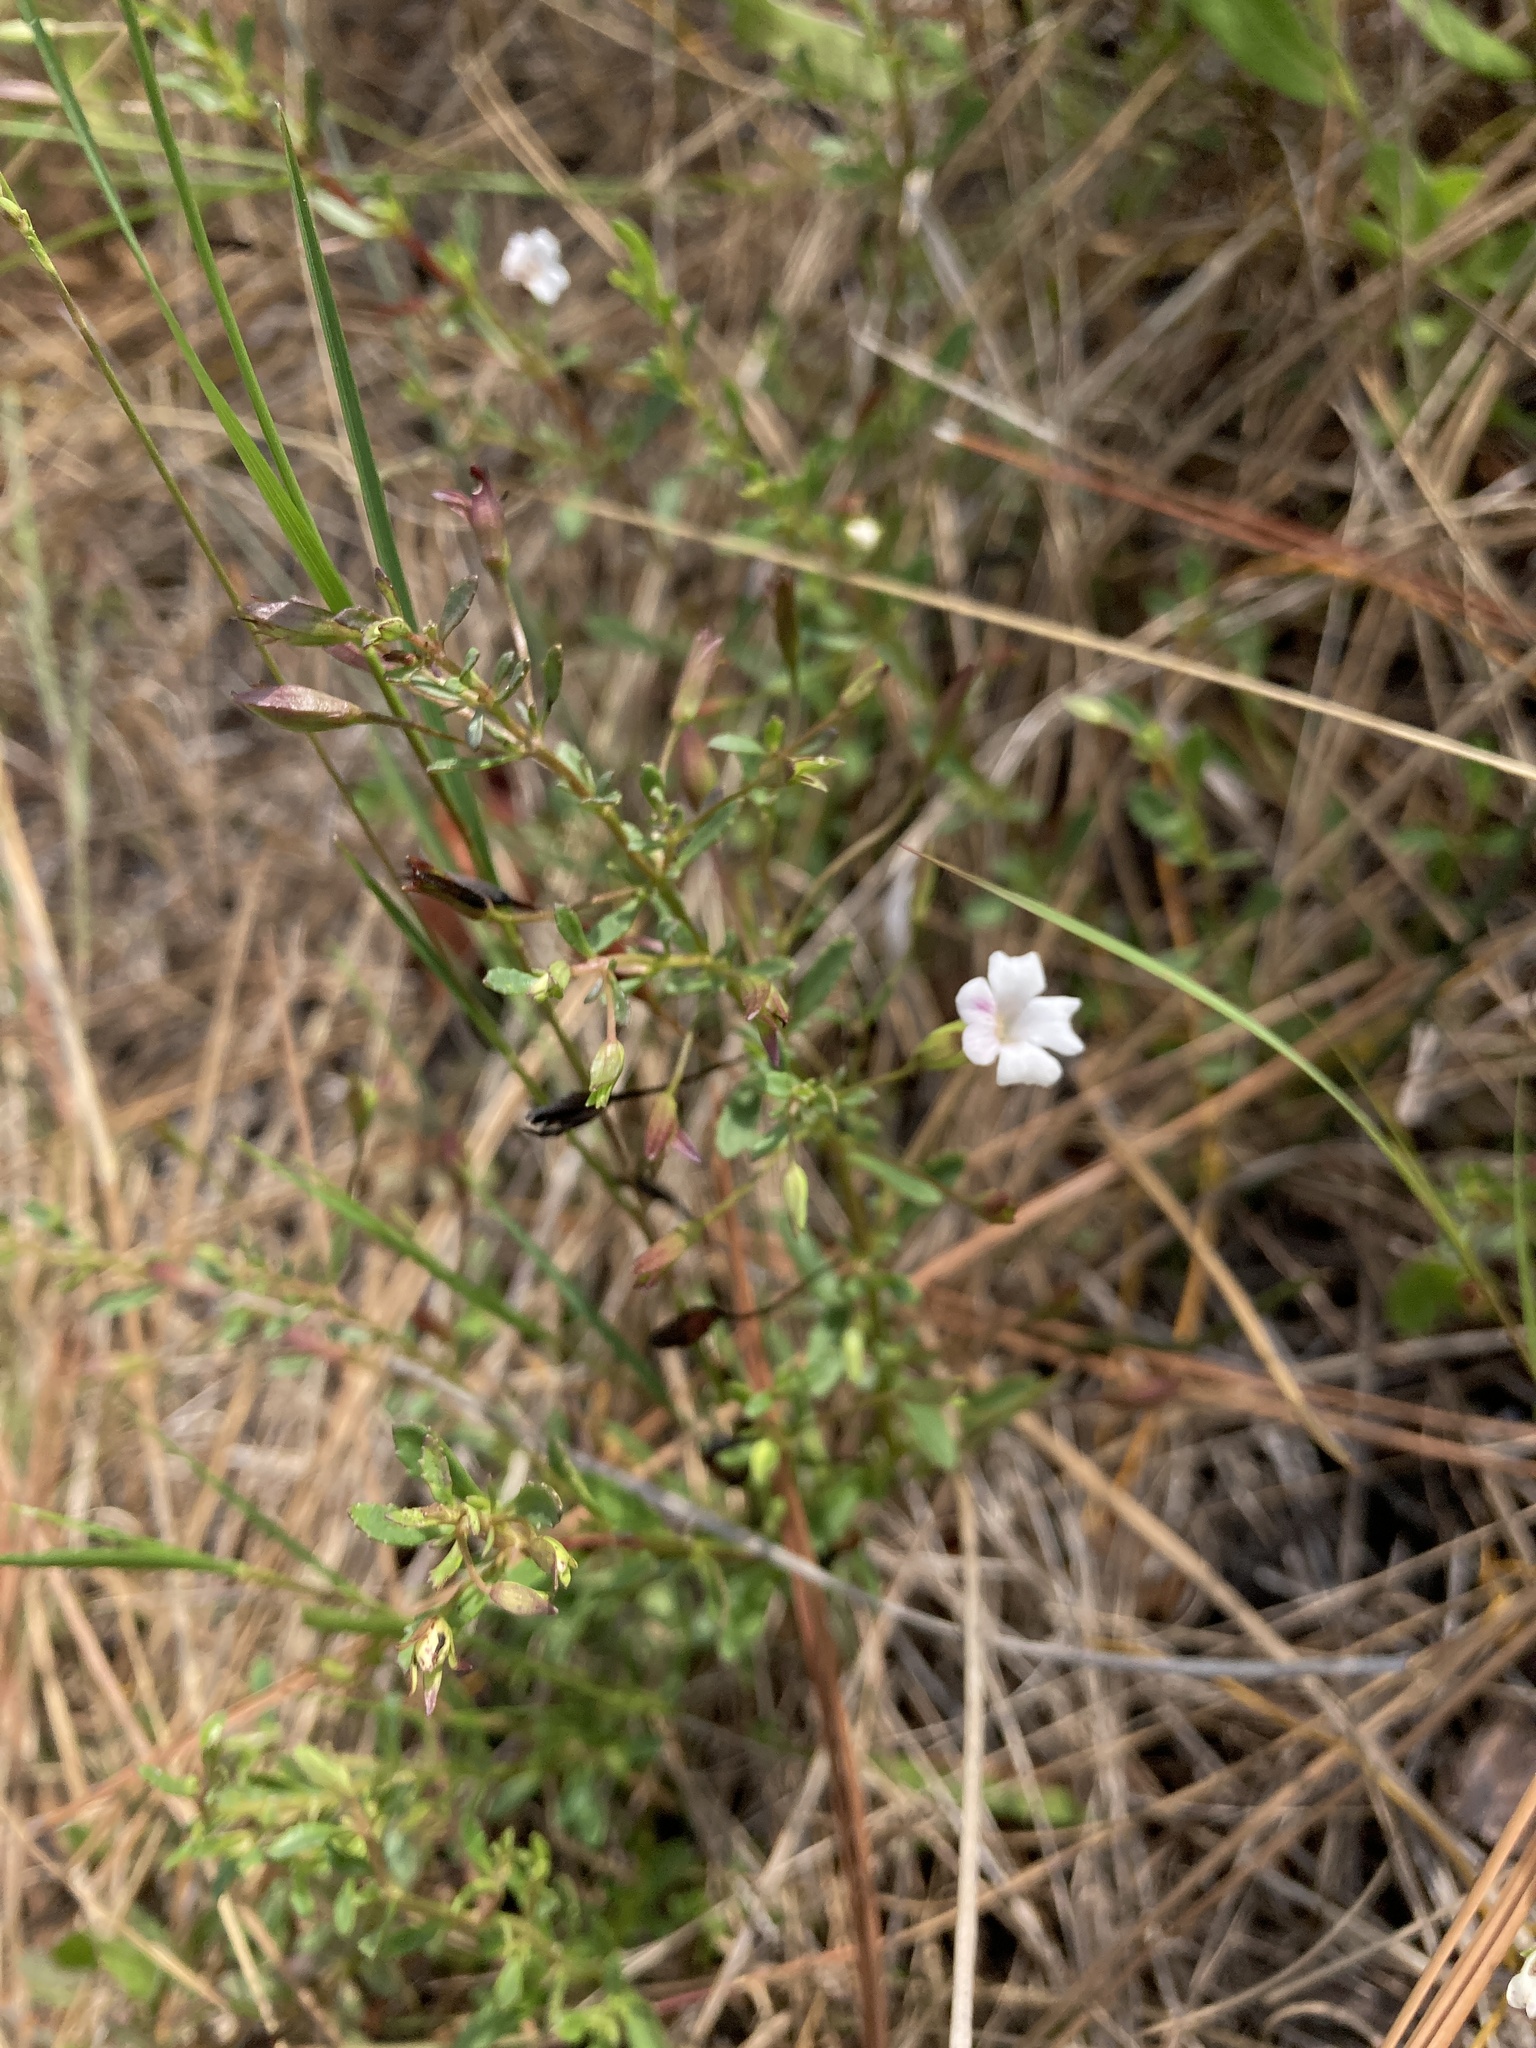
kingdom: Plantae
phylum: Tracheophyta
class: Magnoliopsida
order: Lamiales
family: Plantaginaceae
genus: Mecardonia
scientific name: Mecardonia acuminata
